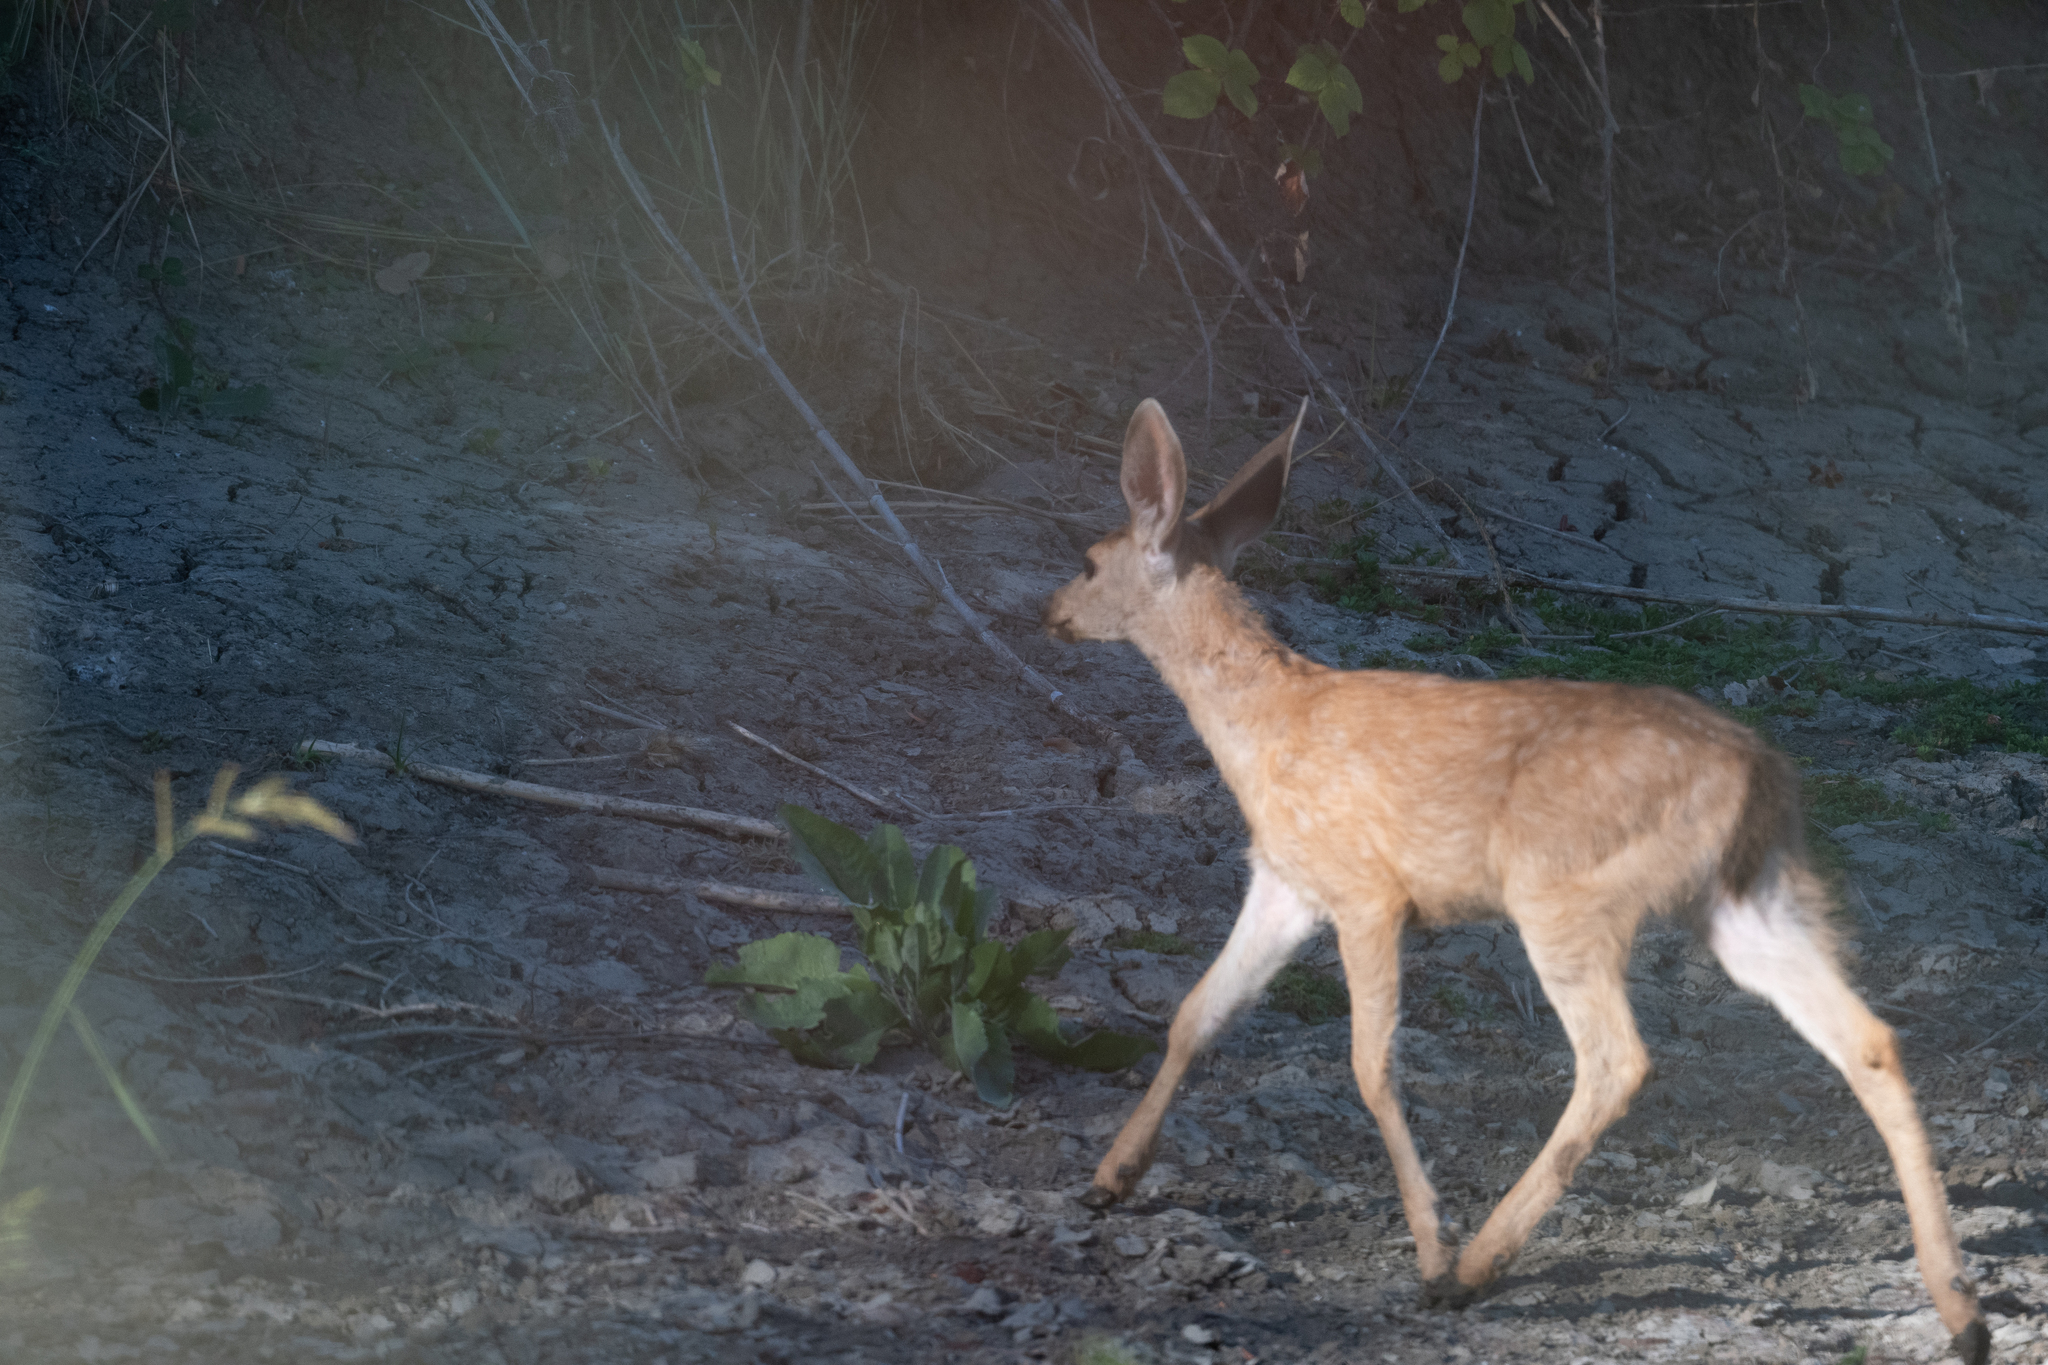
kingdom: Animalia
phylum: Chordata
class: Mammalia
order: Artiodactyla
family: Cervidae
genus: Odocoileus
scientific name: Odocoileus hemionus
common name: Mule deer
